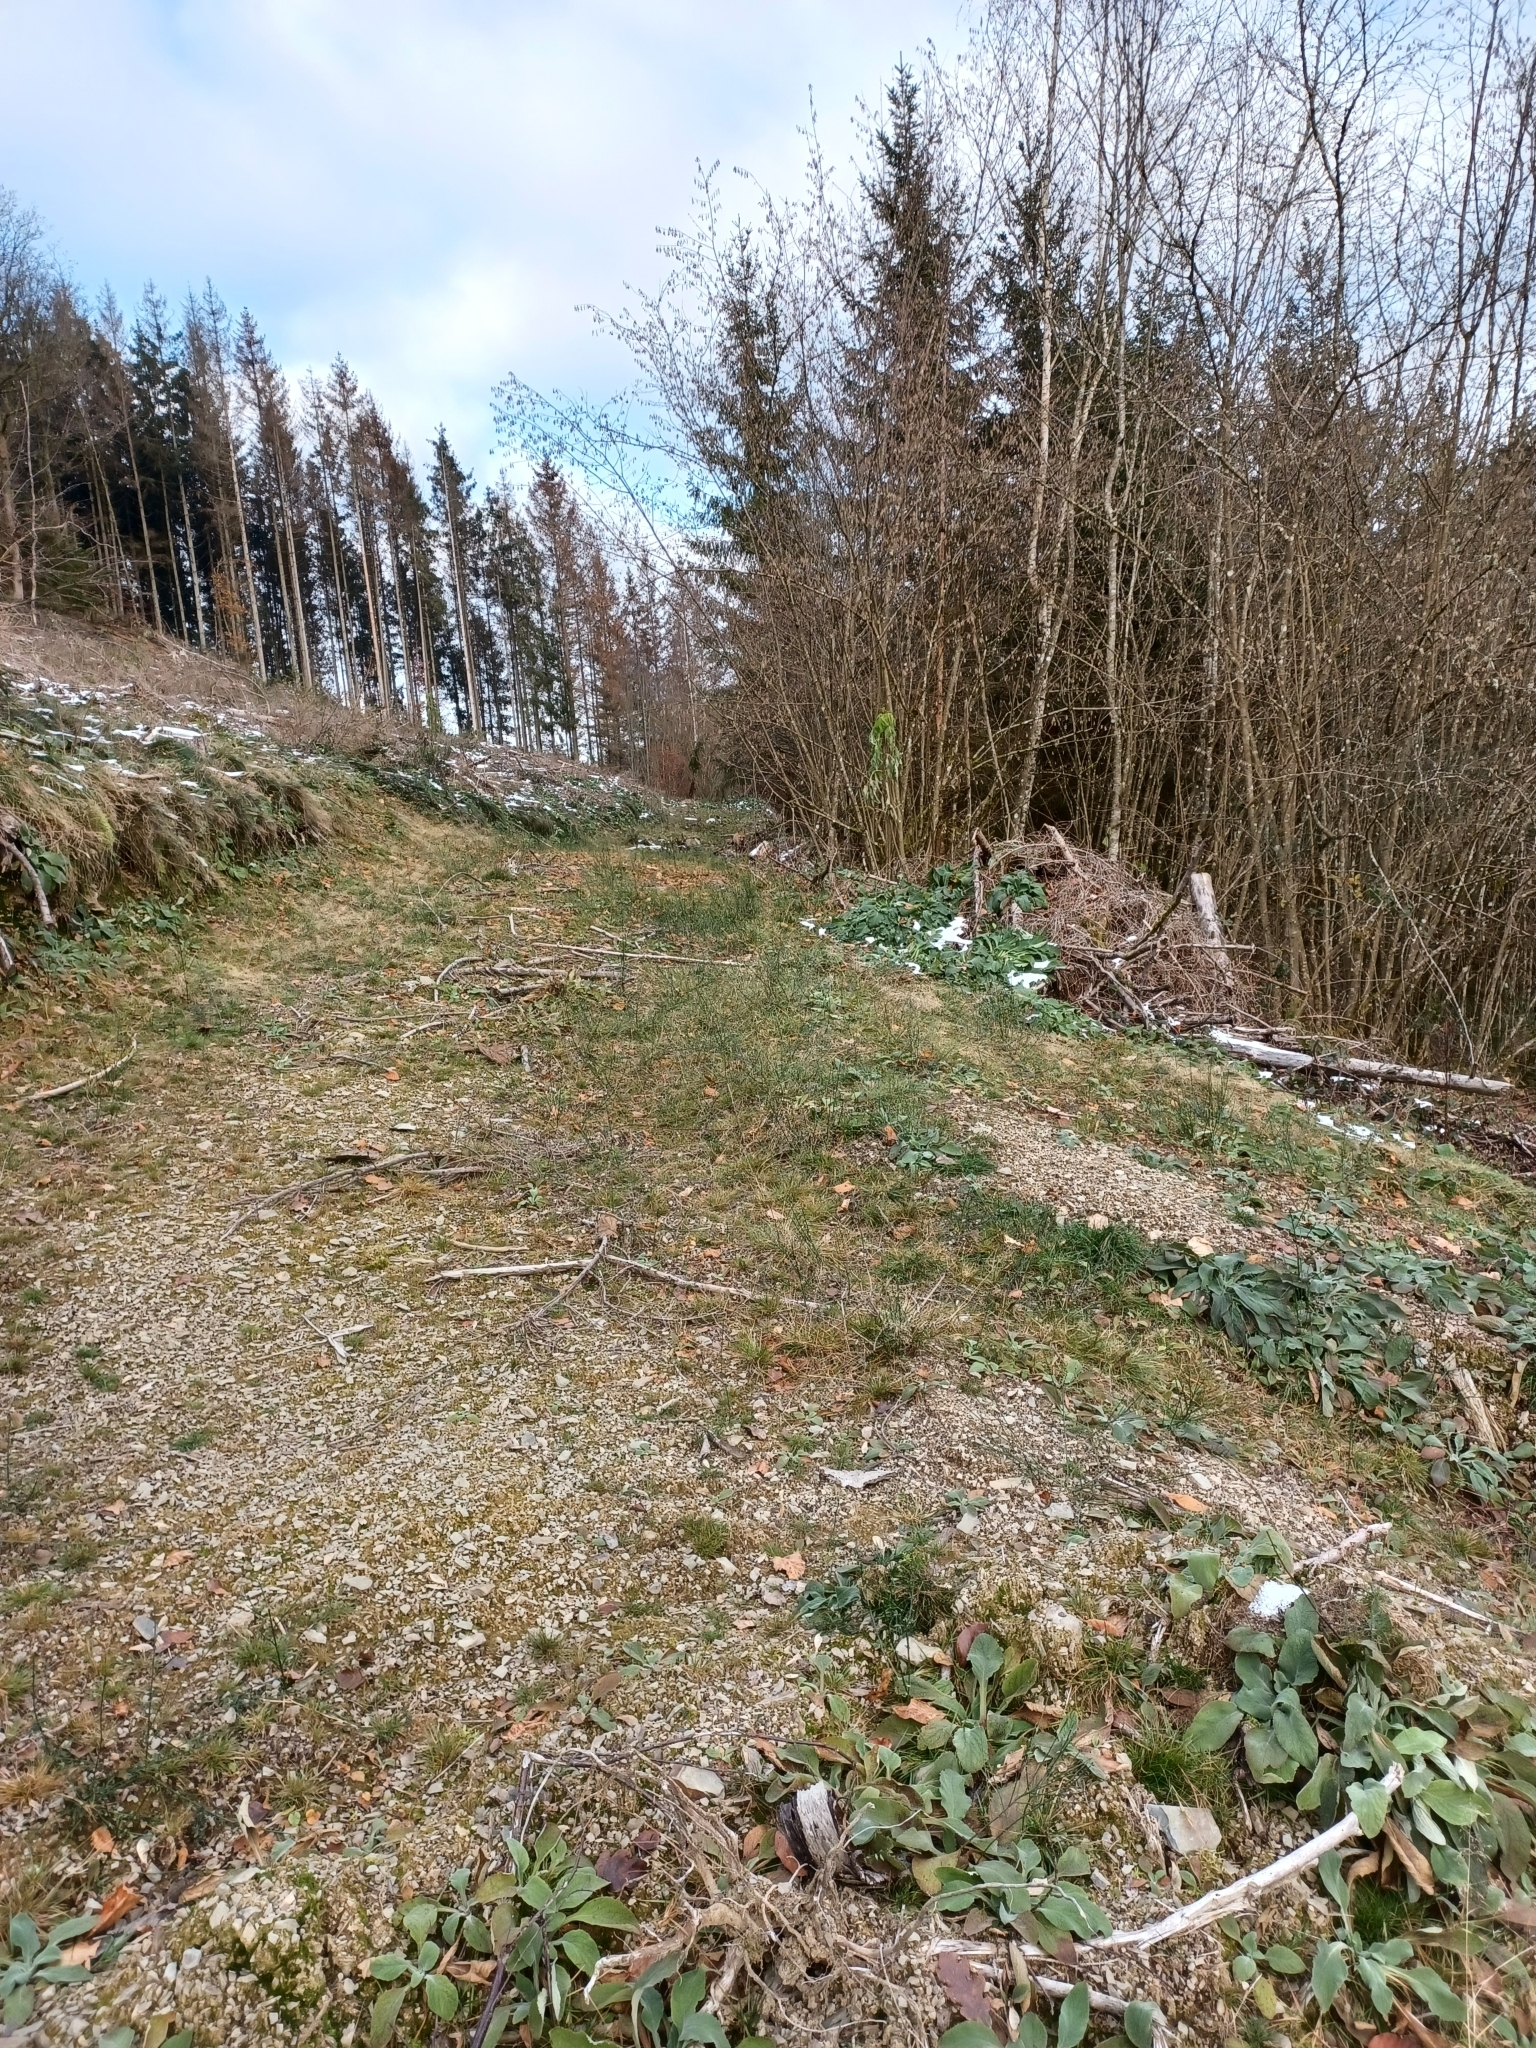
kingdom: Animalia
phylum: Chordata
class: Mammalia
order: Carnivora
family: Canidae
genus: Vulpes
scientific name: Vulpes vulpes
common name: Red fox
